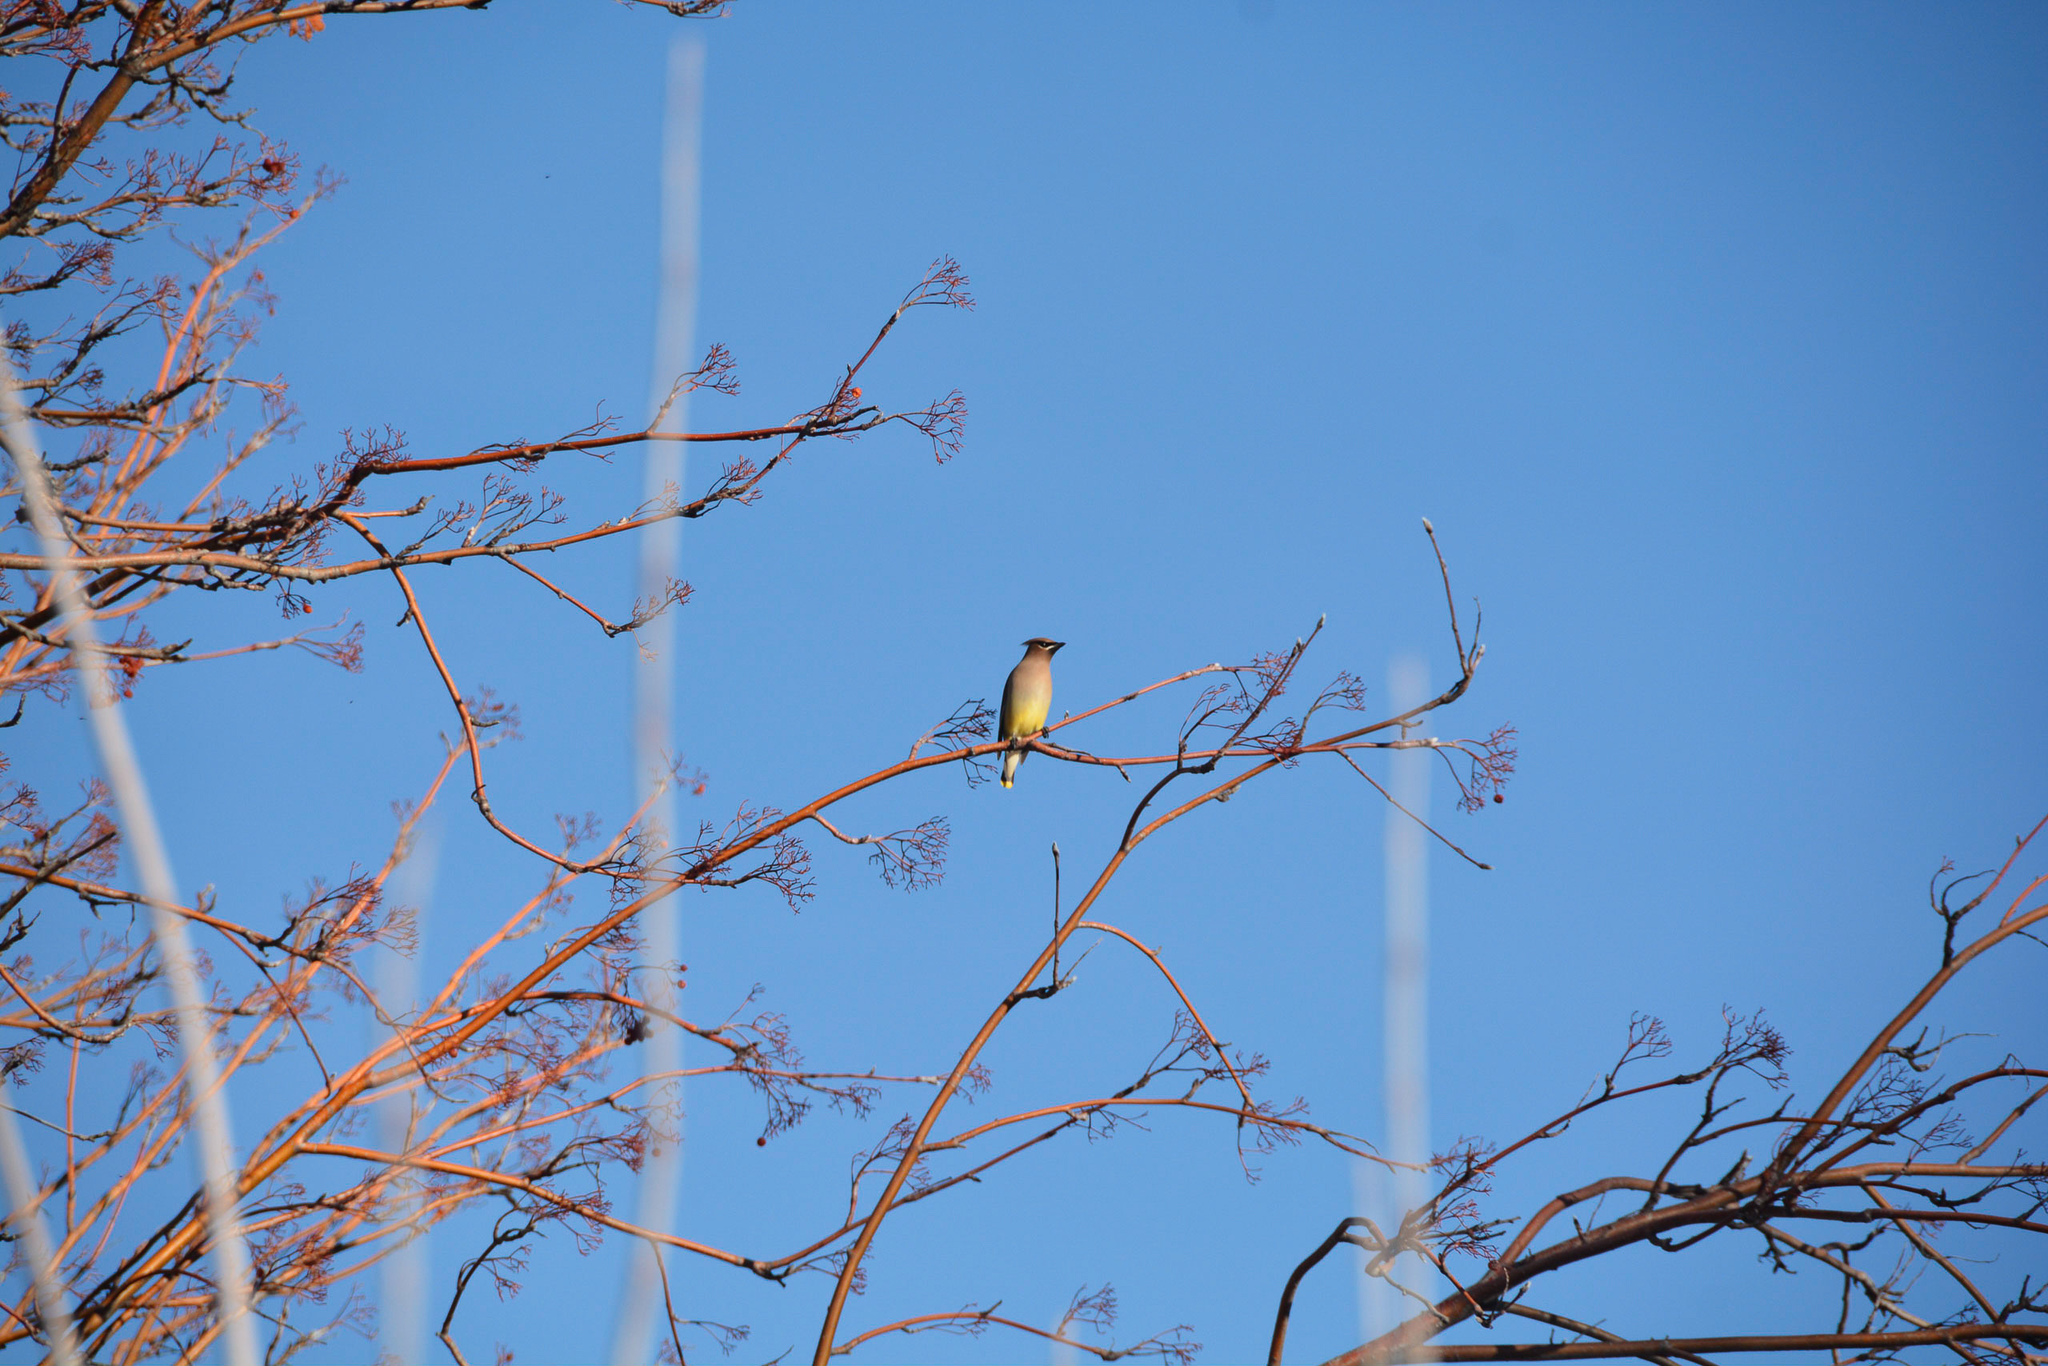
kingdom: Animalia
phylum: Chordata
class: Aves
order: Passeriformes
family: Bombycillidae
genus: Bombycilla
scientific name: Bombycilla cedrorum
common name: Cedar waxwing
